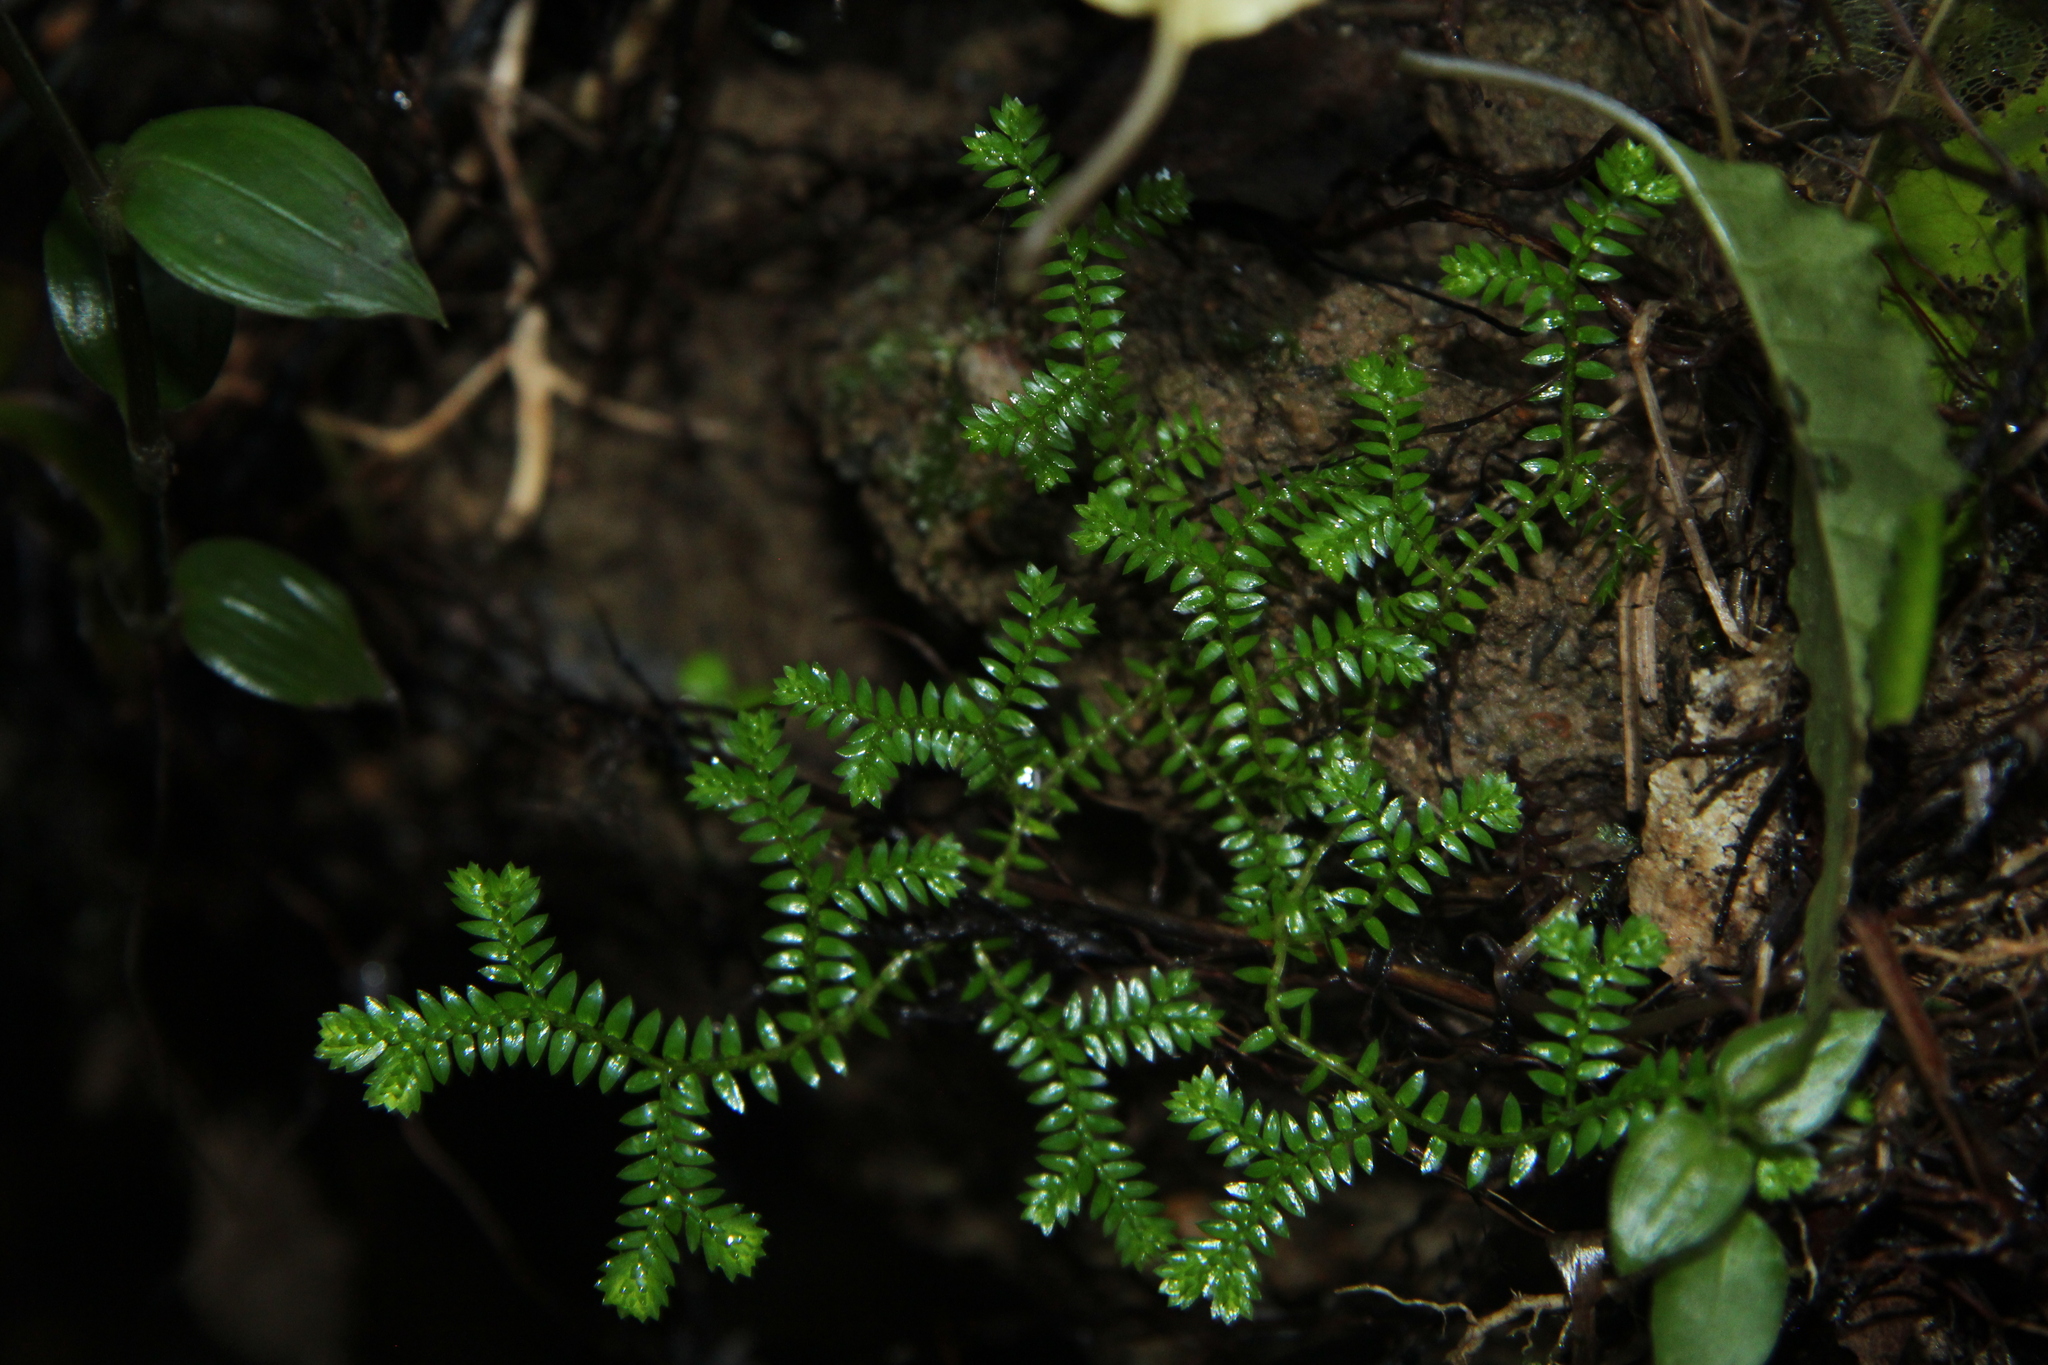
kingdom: Plantae
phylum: Tracheophyta
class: Lycopodiopsida
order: Selaginellales
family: Selaginellaceae
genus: Selaginella
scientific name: Selaginella kraussiana
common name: Krauss' spikemoss
